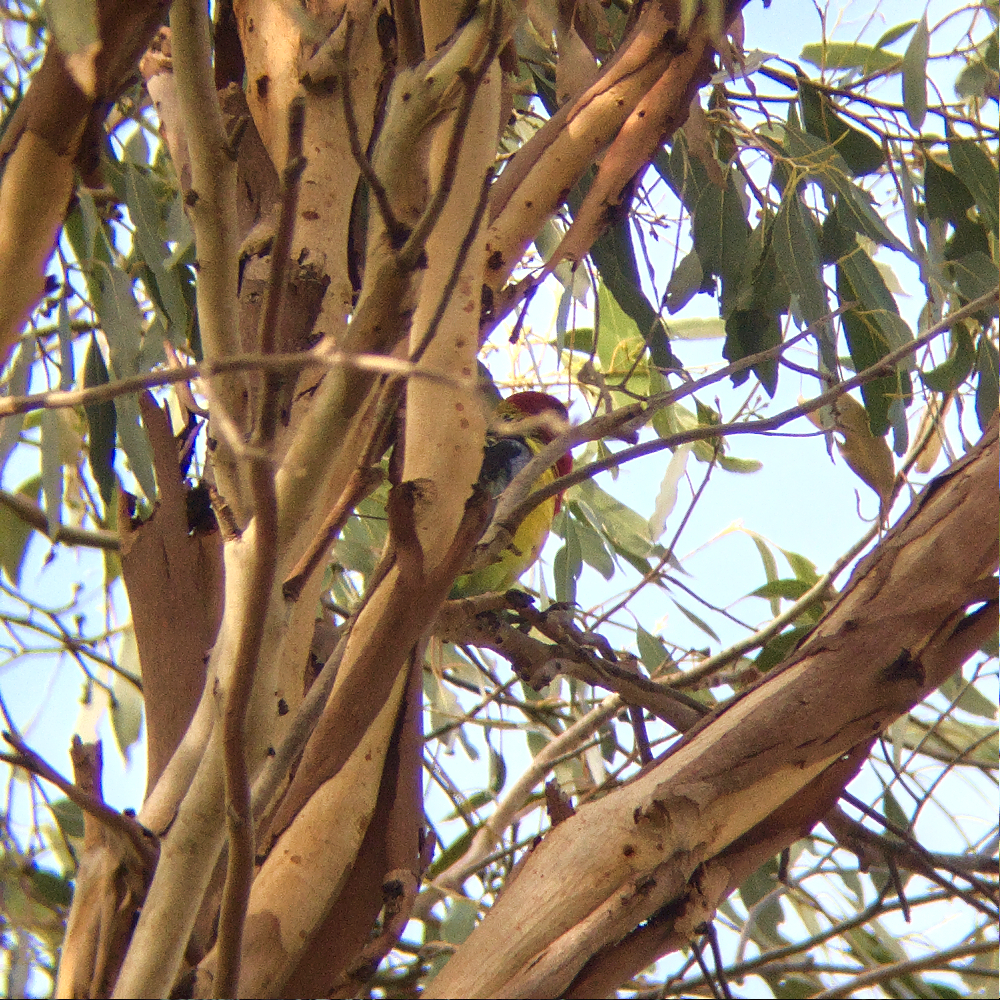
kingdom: Animalia
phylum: Chordata
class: Aves
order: Psittaciformes
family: Psittacidae
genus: Platycercus
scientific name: Platycercus eximius
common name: Eastern rosella
